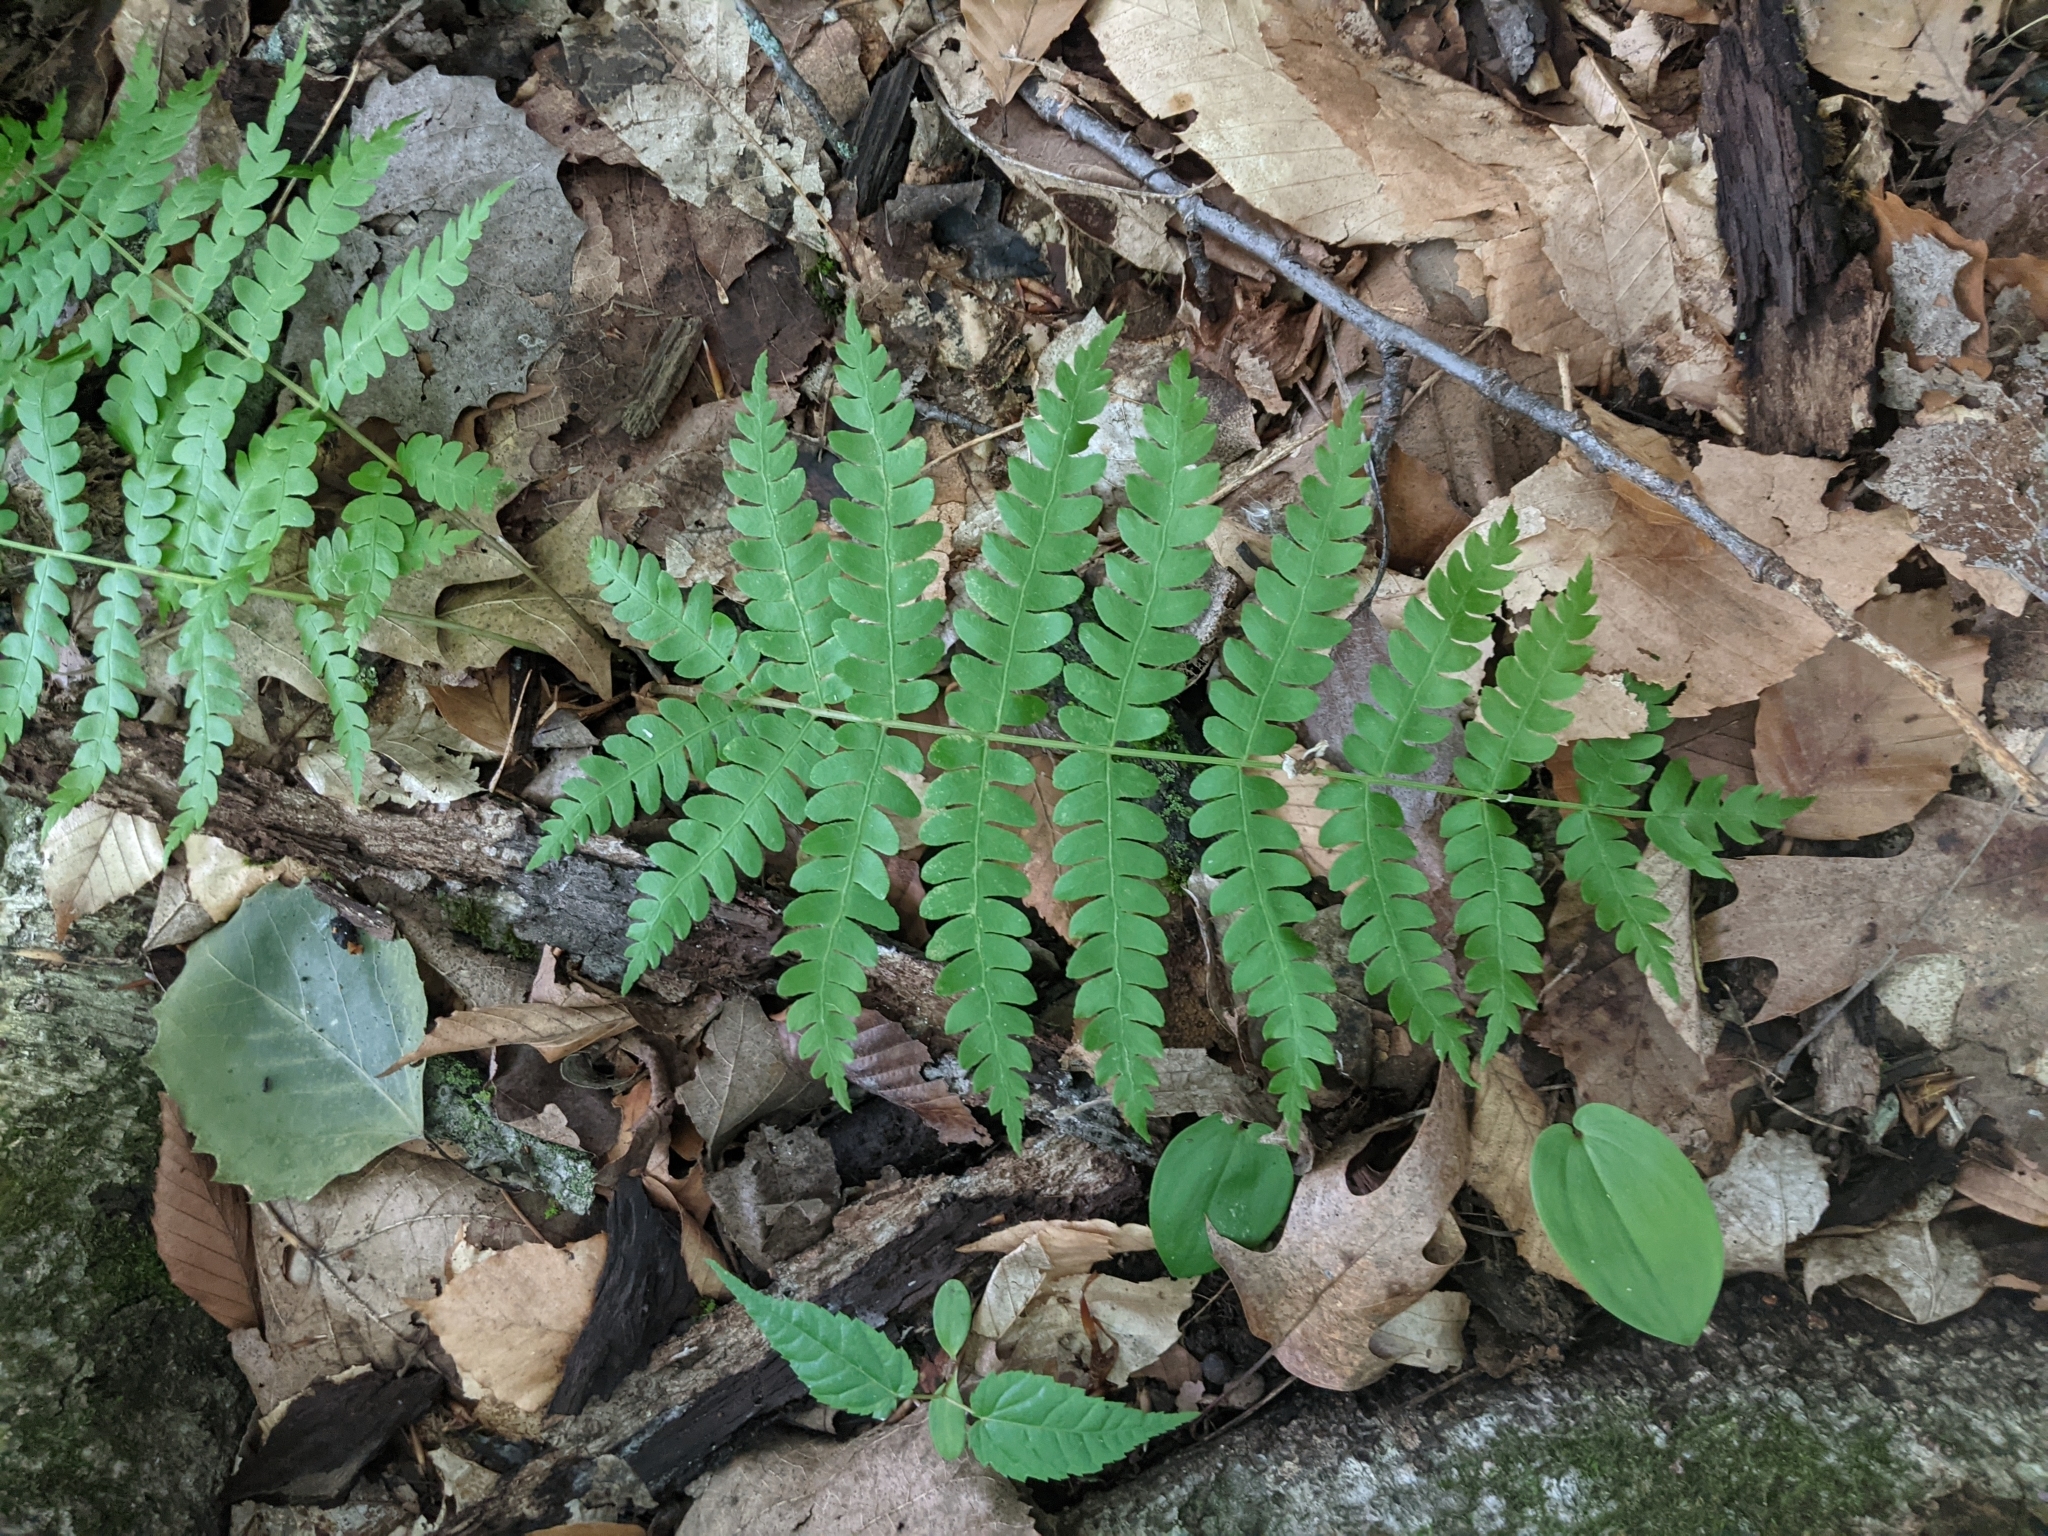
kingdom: Plantae
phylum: Tracheophyta
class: Polypodiopsida
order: Osmundales
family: Osmundaceae
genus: Claytosmunda
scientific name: Claytosmunda claytoniana
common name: Clayton's fern
